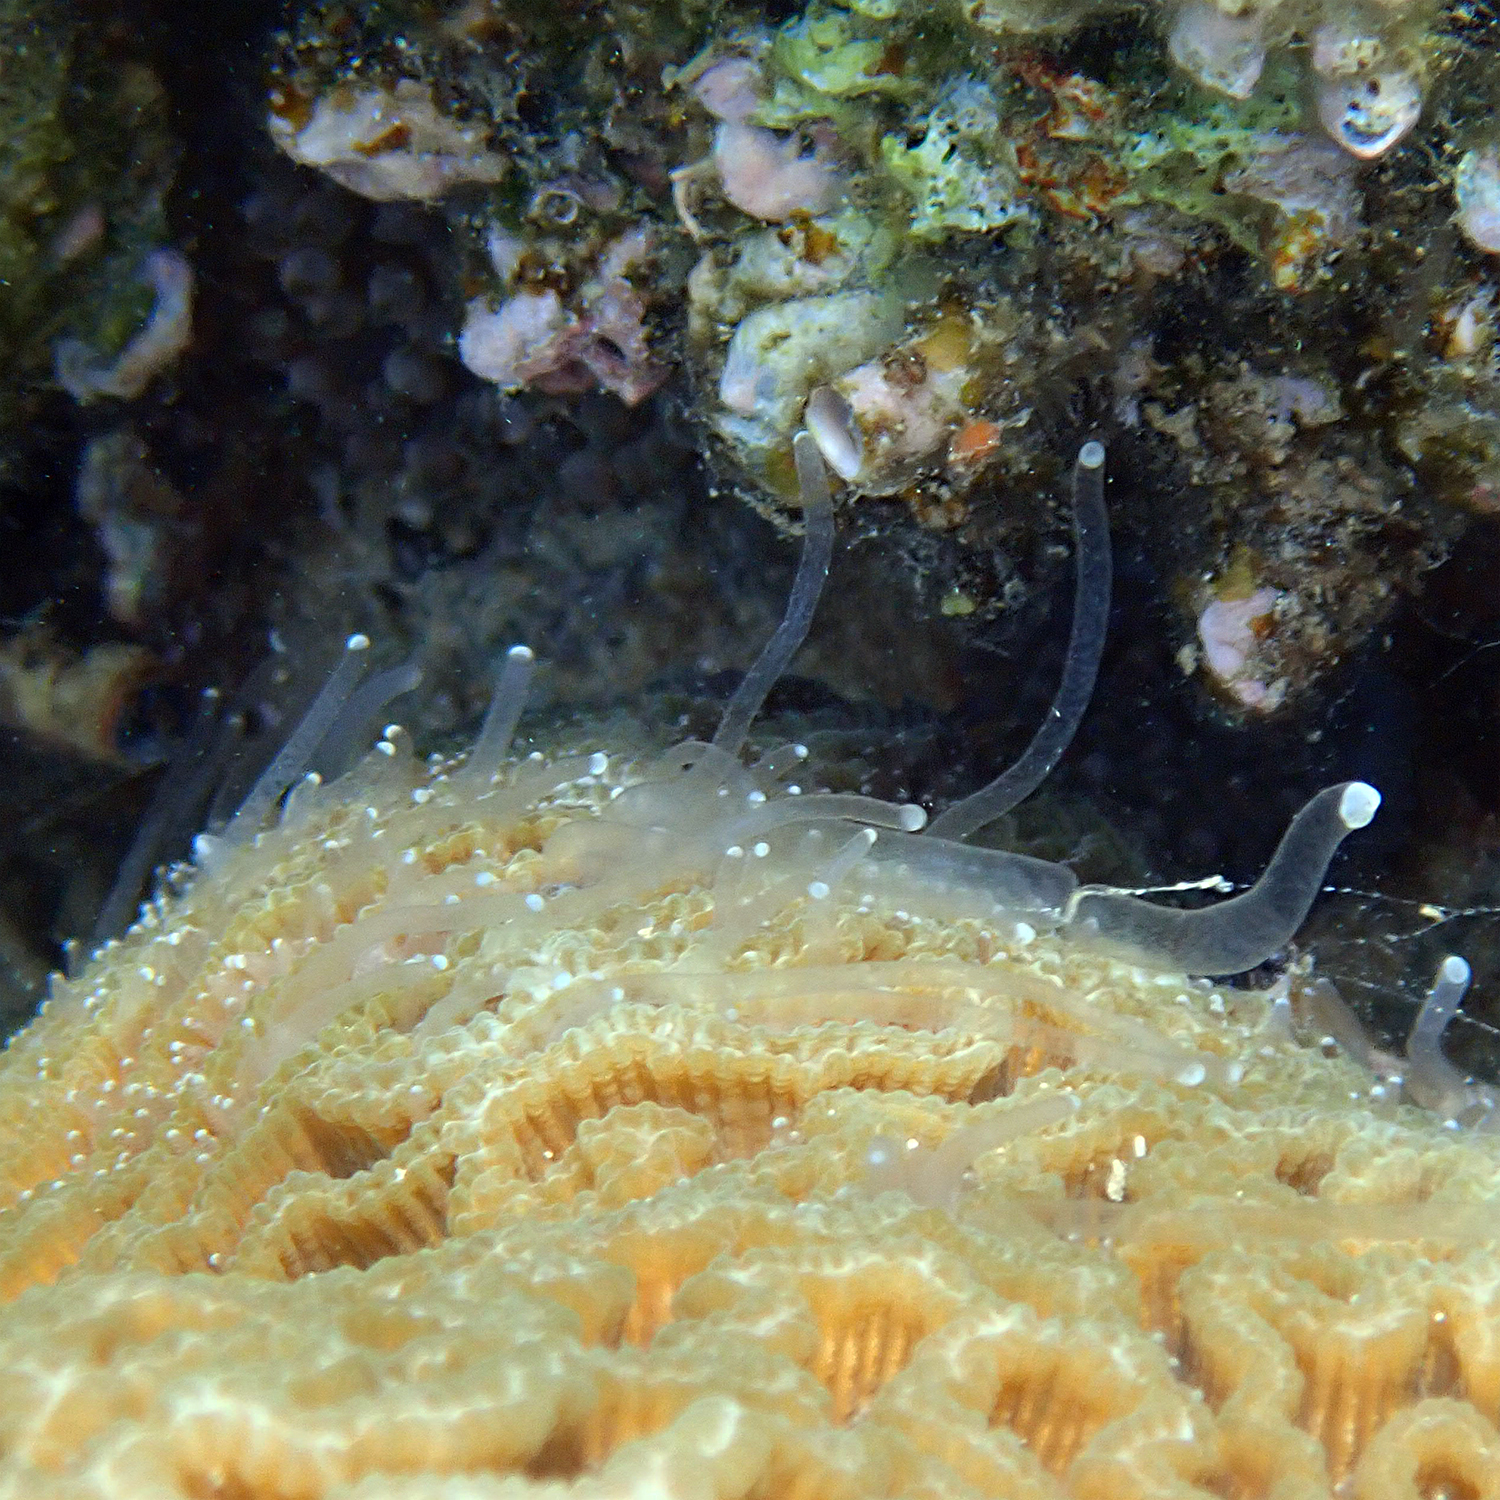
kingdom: Animalia
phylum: Cnidaria
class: Anthozoa
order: Scleractinia
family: Merulinidae
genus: Paragoniastrea
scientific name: Paragoniastrea australensis
